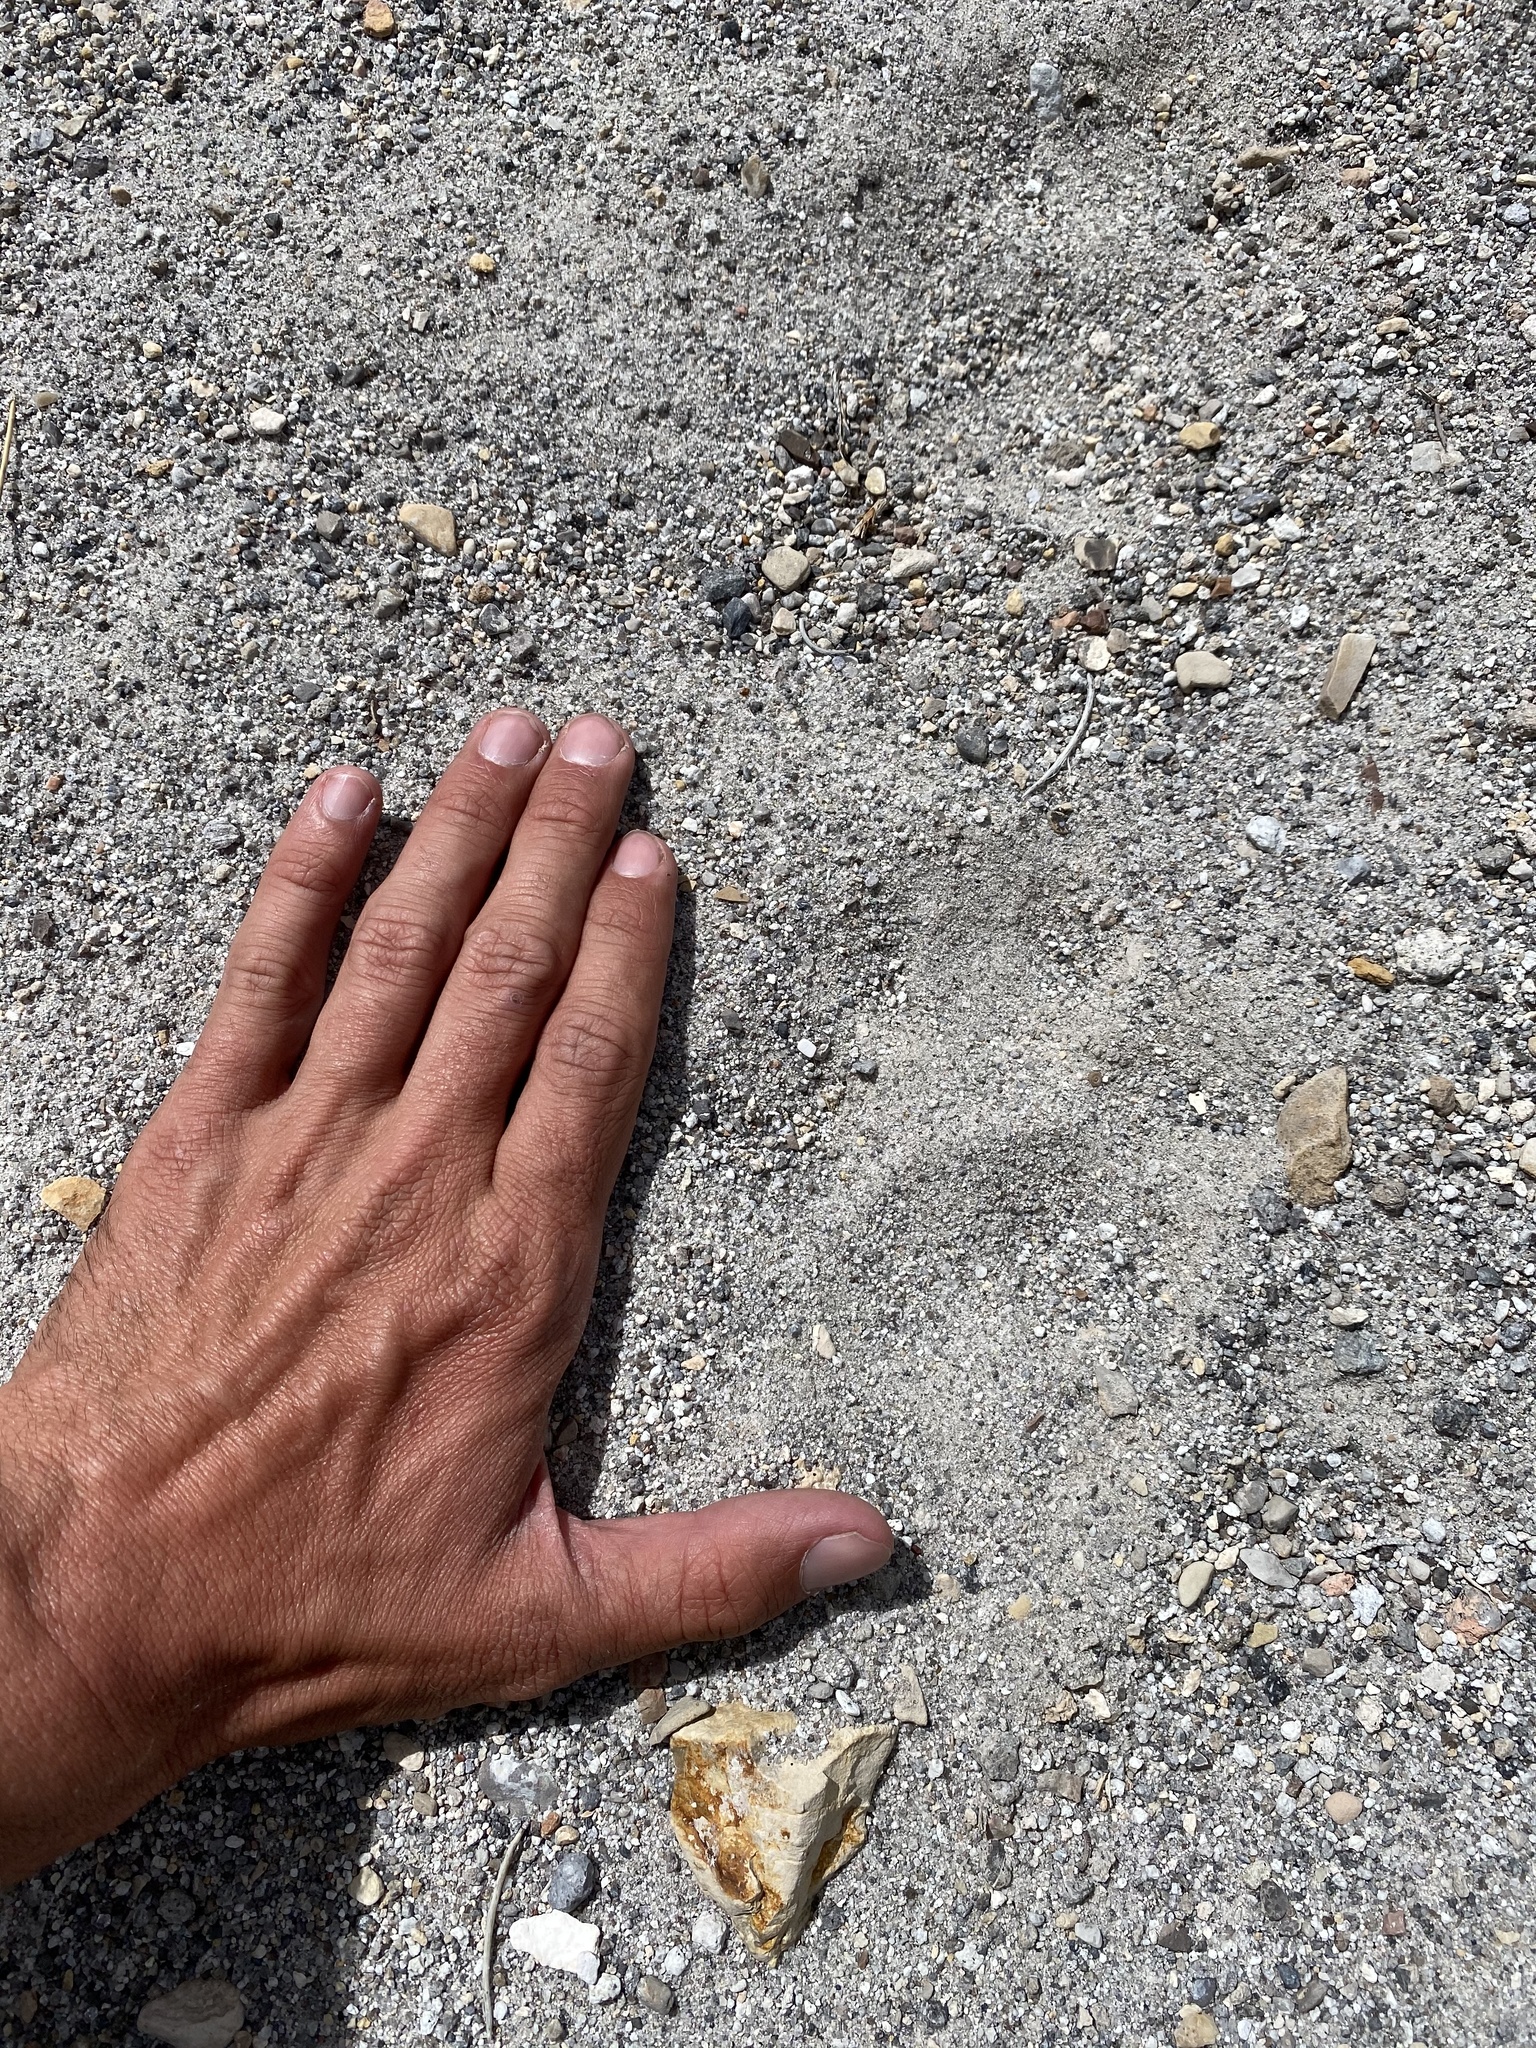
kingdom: Animalia
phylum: Chordata
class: Mammalia
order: Carnivora
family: Felidae
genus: Puma
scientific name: Puma concolor
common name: Puma
